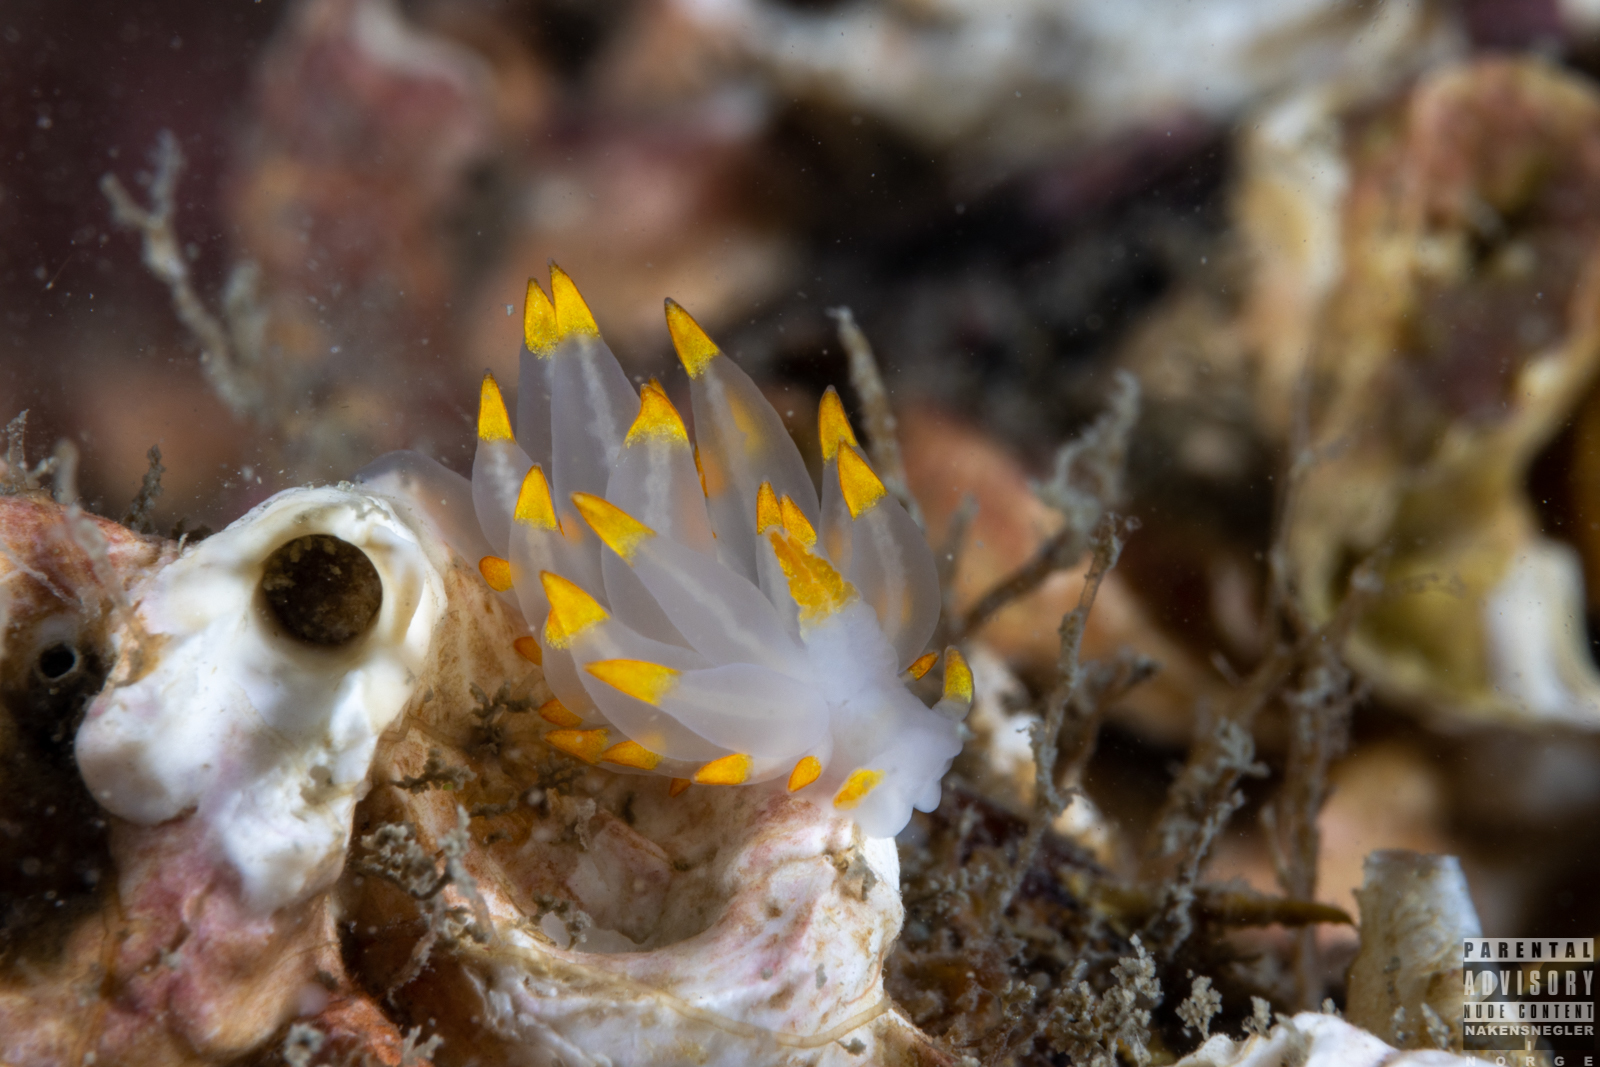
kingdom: Animalia
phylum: Mollusca
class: Gastropoda
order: Nudibranchia
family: Eubranchidae
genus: Amphorina
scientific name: Amphorina farrani
